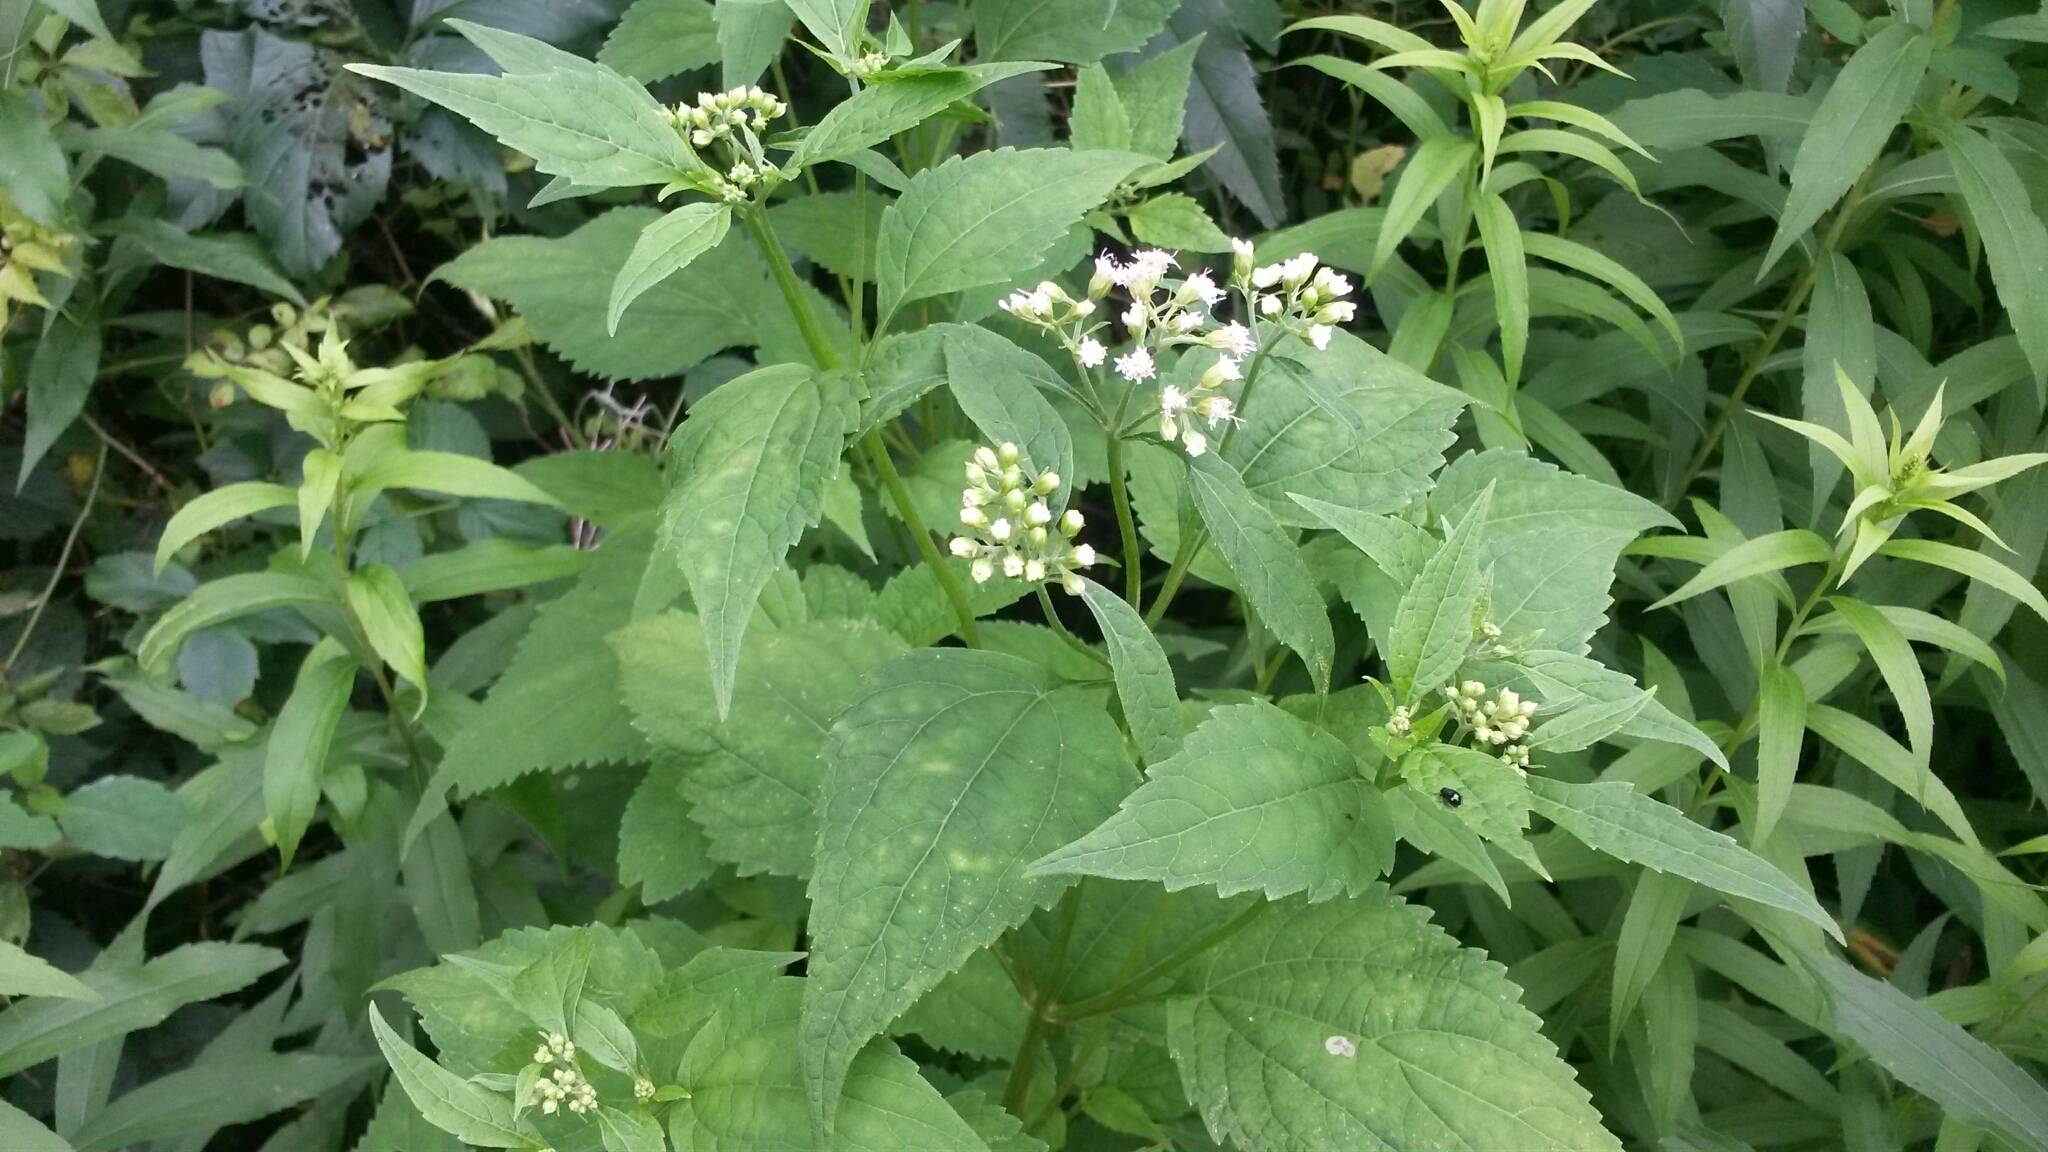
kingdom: Plantae
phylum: Tracheophyta
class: Magnoliopsida
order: Asterales
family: Asteraceae
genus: Ageratina
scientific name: Ageratina altissima
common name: White snakeroot
